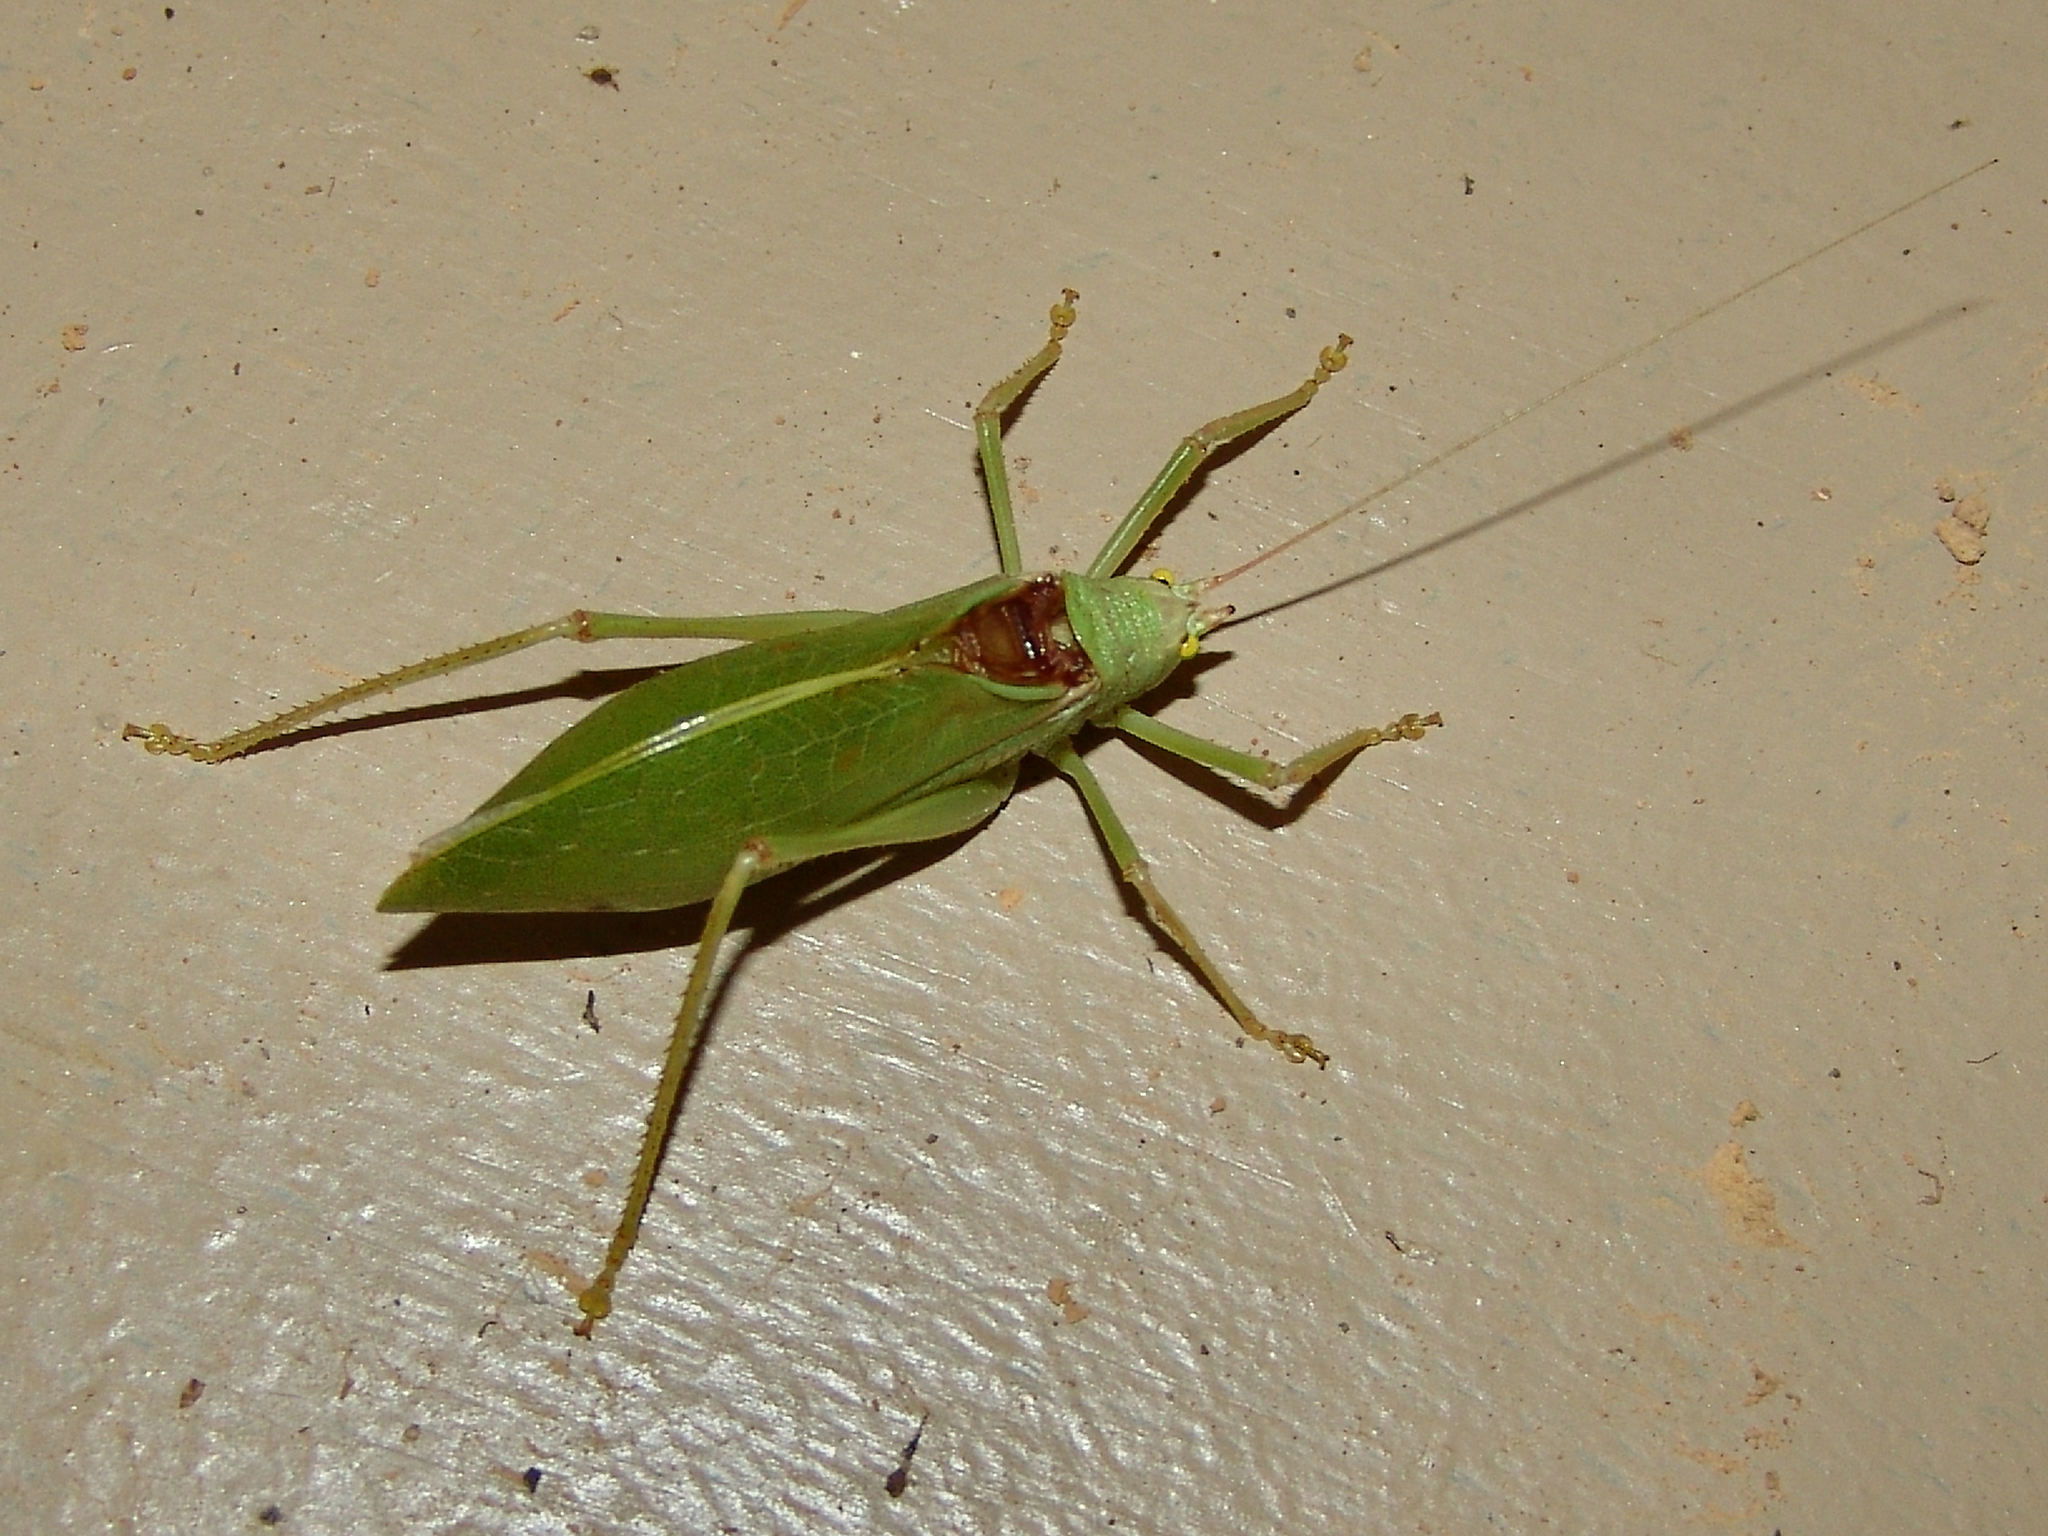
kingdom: Animalia
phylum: Arthropoda
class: Insecta
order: Orthoptera
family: Tettigoniidae
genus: Pterophylla
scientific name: Pterophylla camellifolia
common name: Common true katydid
